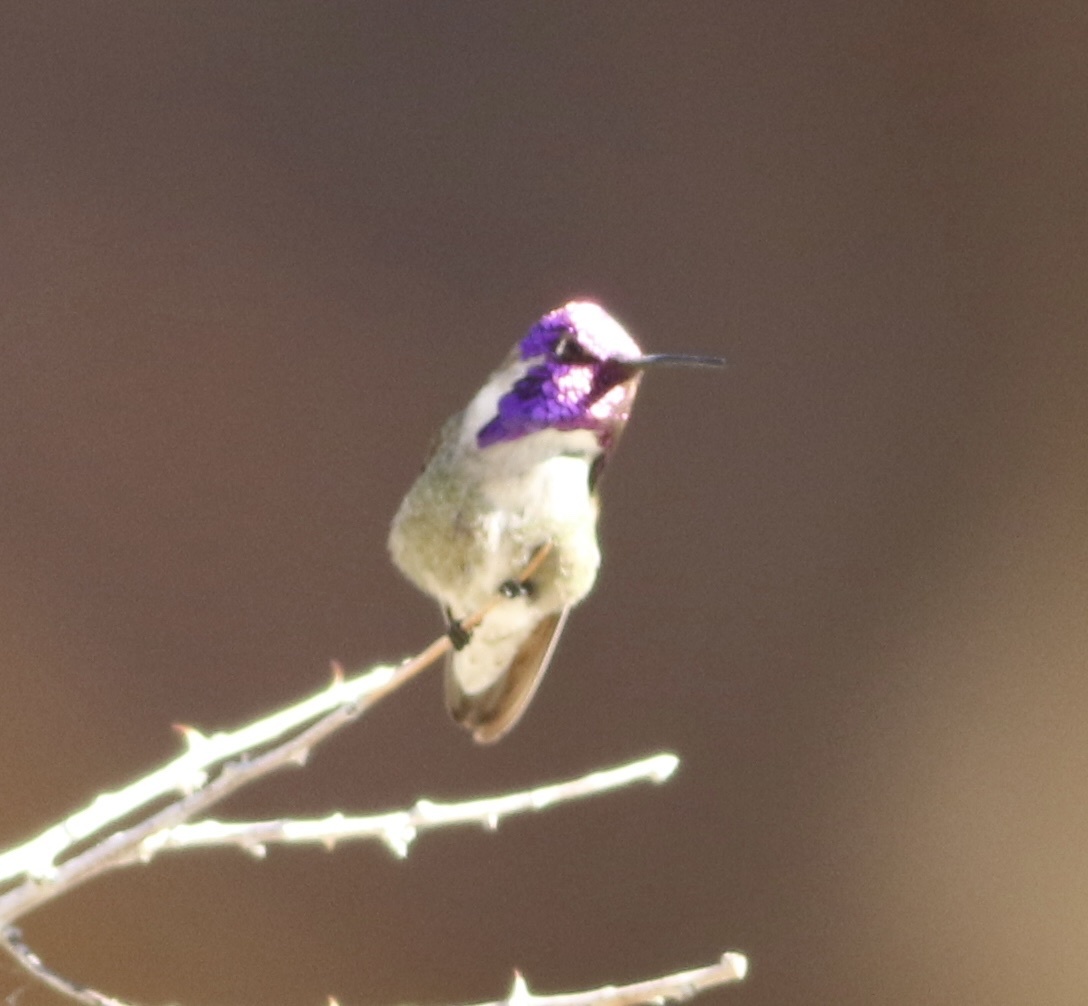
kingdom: Animalia
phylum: Chordata
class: Aves
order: Apodiformes
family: Trochilidae
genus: Calypte
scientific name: Calypte costae
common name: Costa's hummingbird
